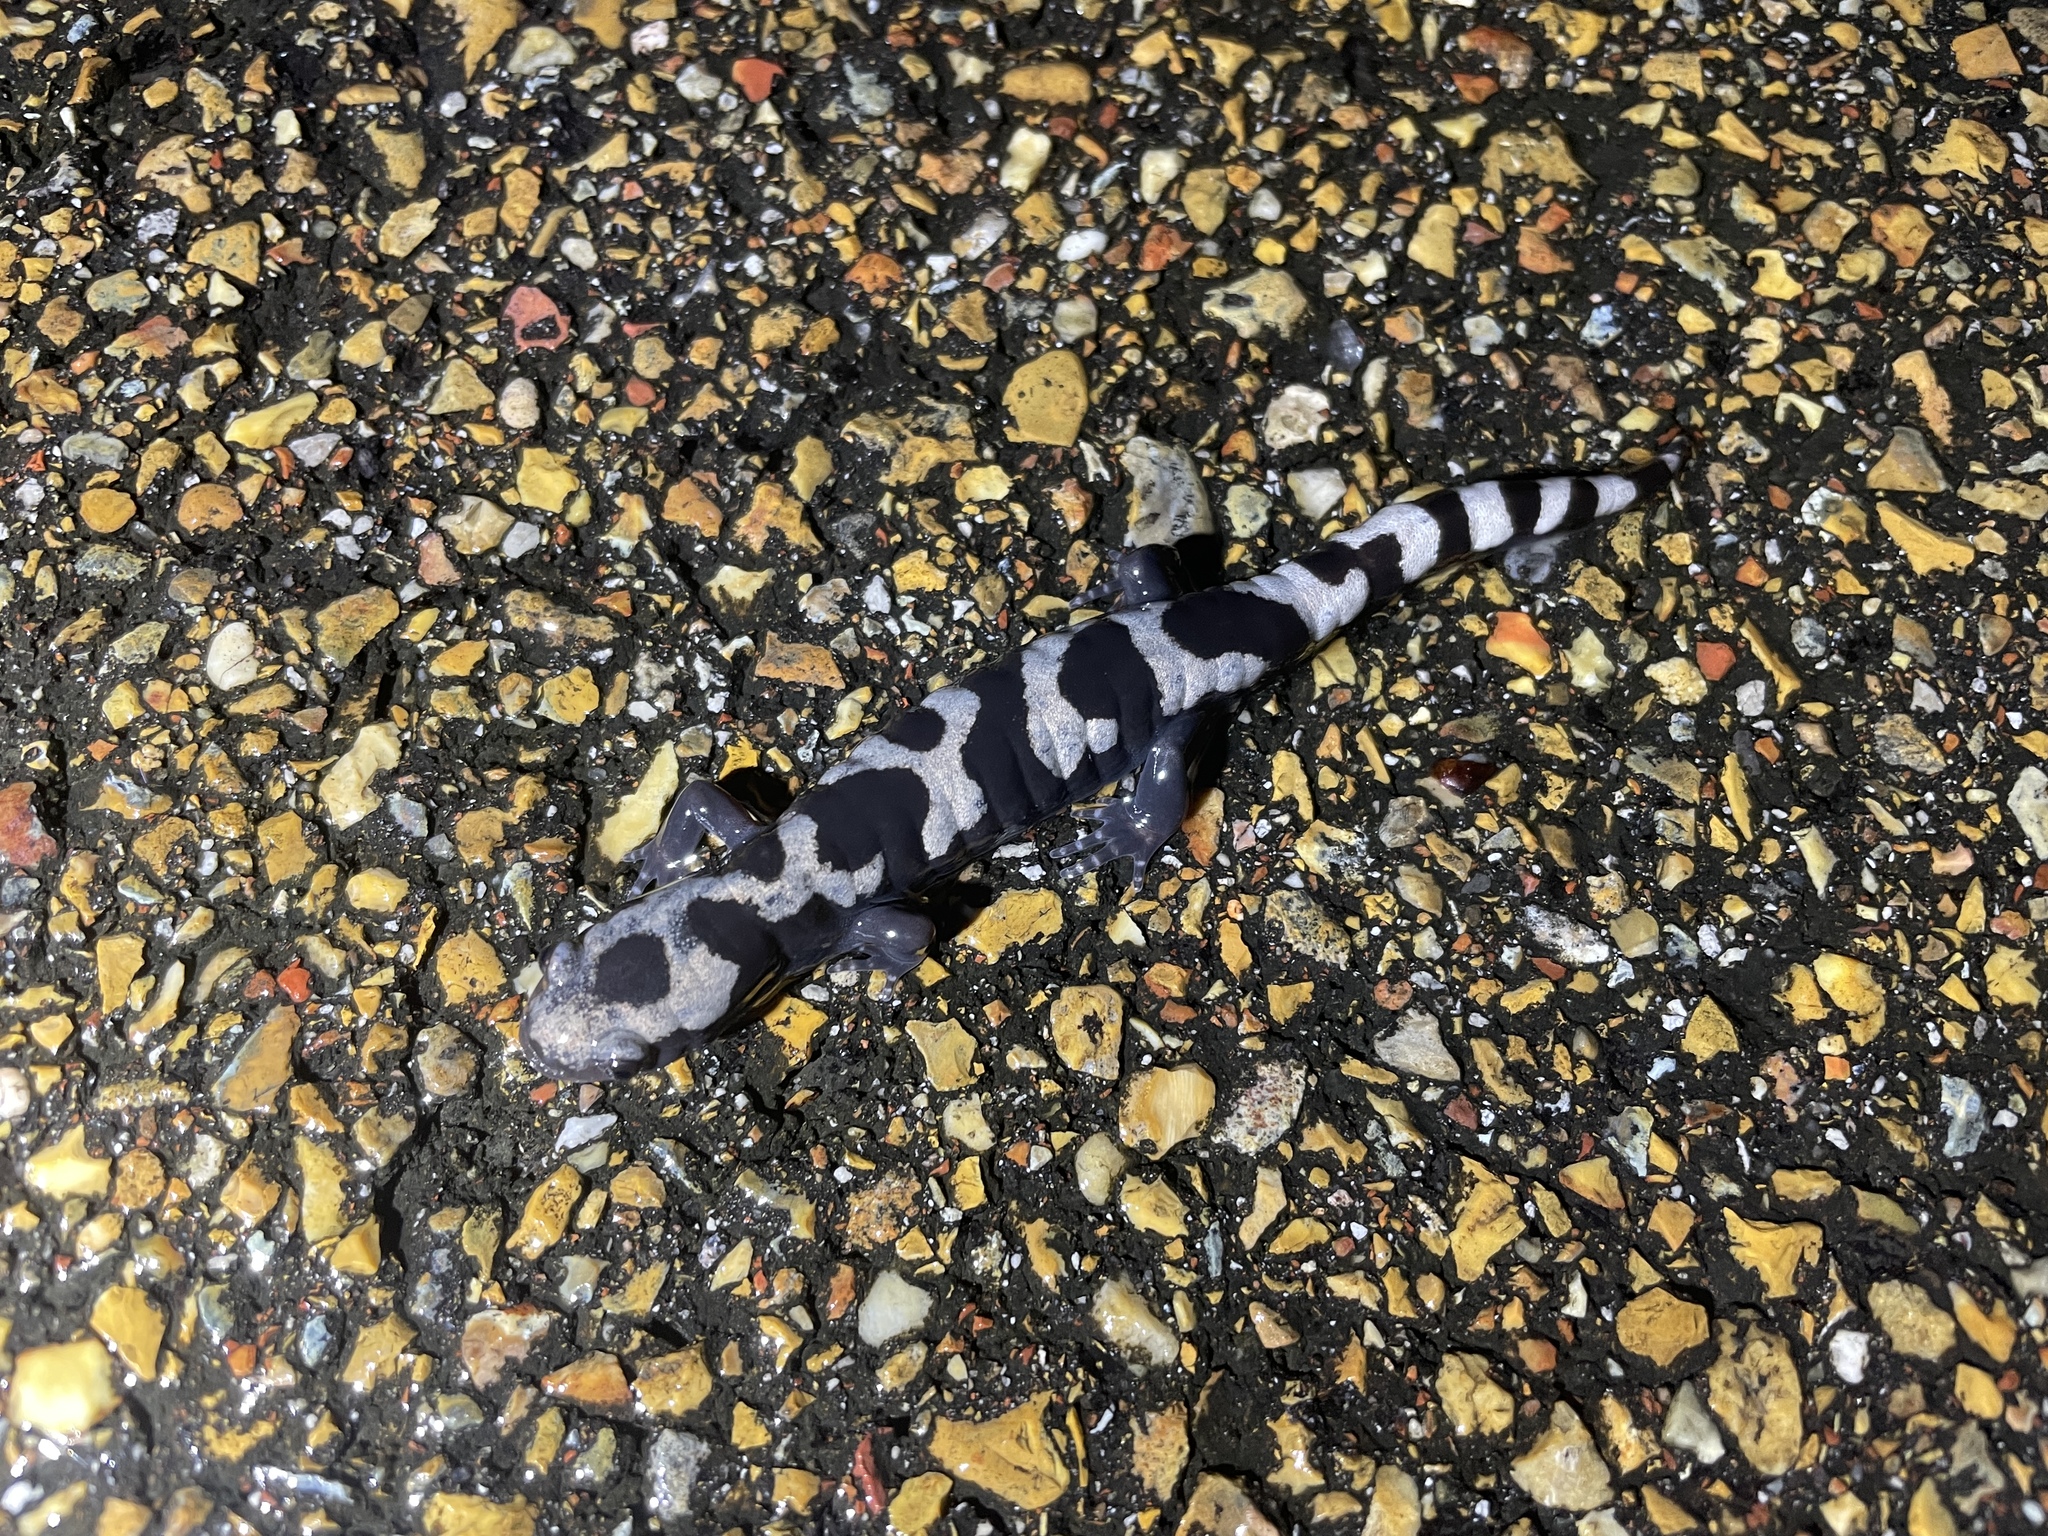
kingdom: Animalia
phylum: Chordata
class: Amphibia
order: Caudata
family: Ambystomatidae
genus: Ambystoma
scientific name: Ambystoma opacum
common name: Marbled salamander
